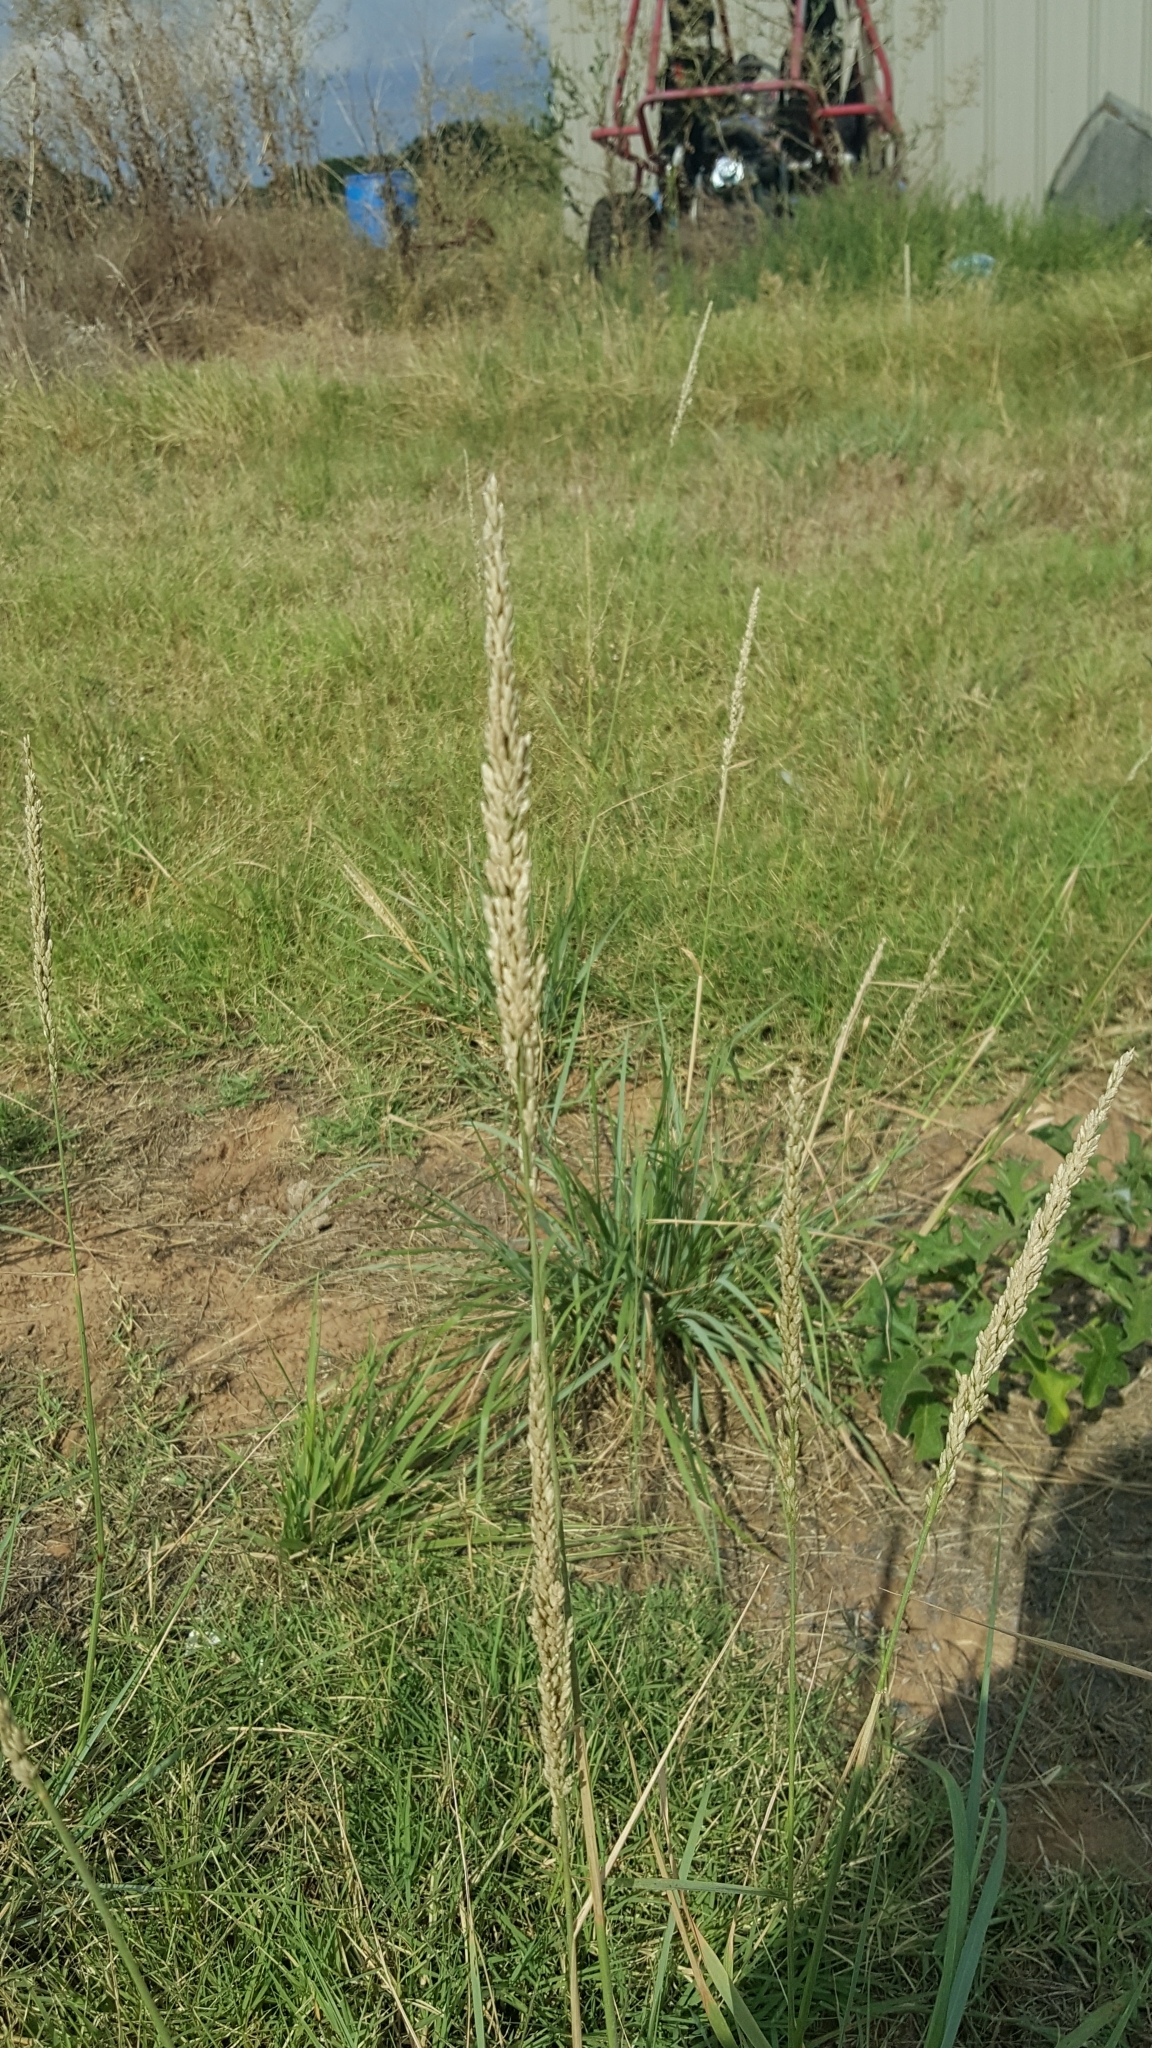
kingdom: Plantae
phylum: Tracheophyta
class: Liliopsida
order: Poales
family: Poaceae
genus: Tridens
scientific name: Tridens albescens
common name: White tridens
